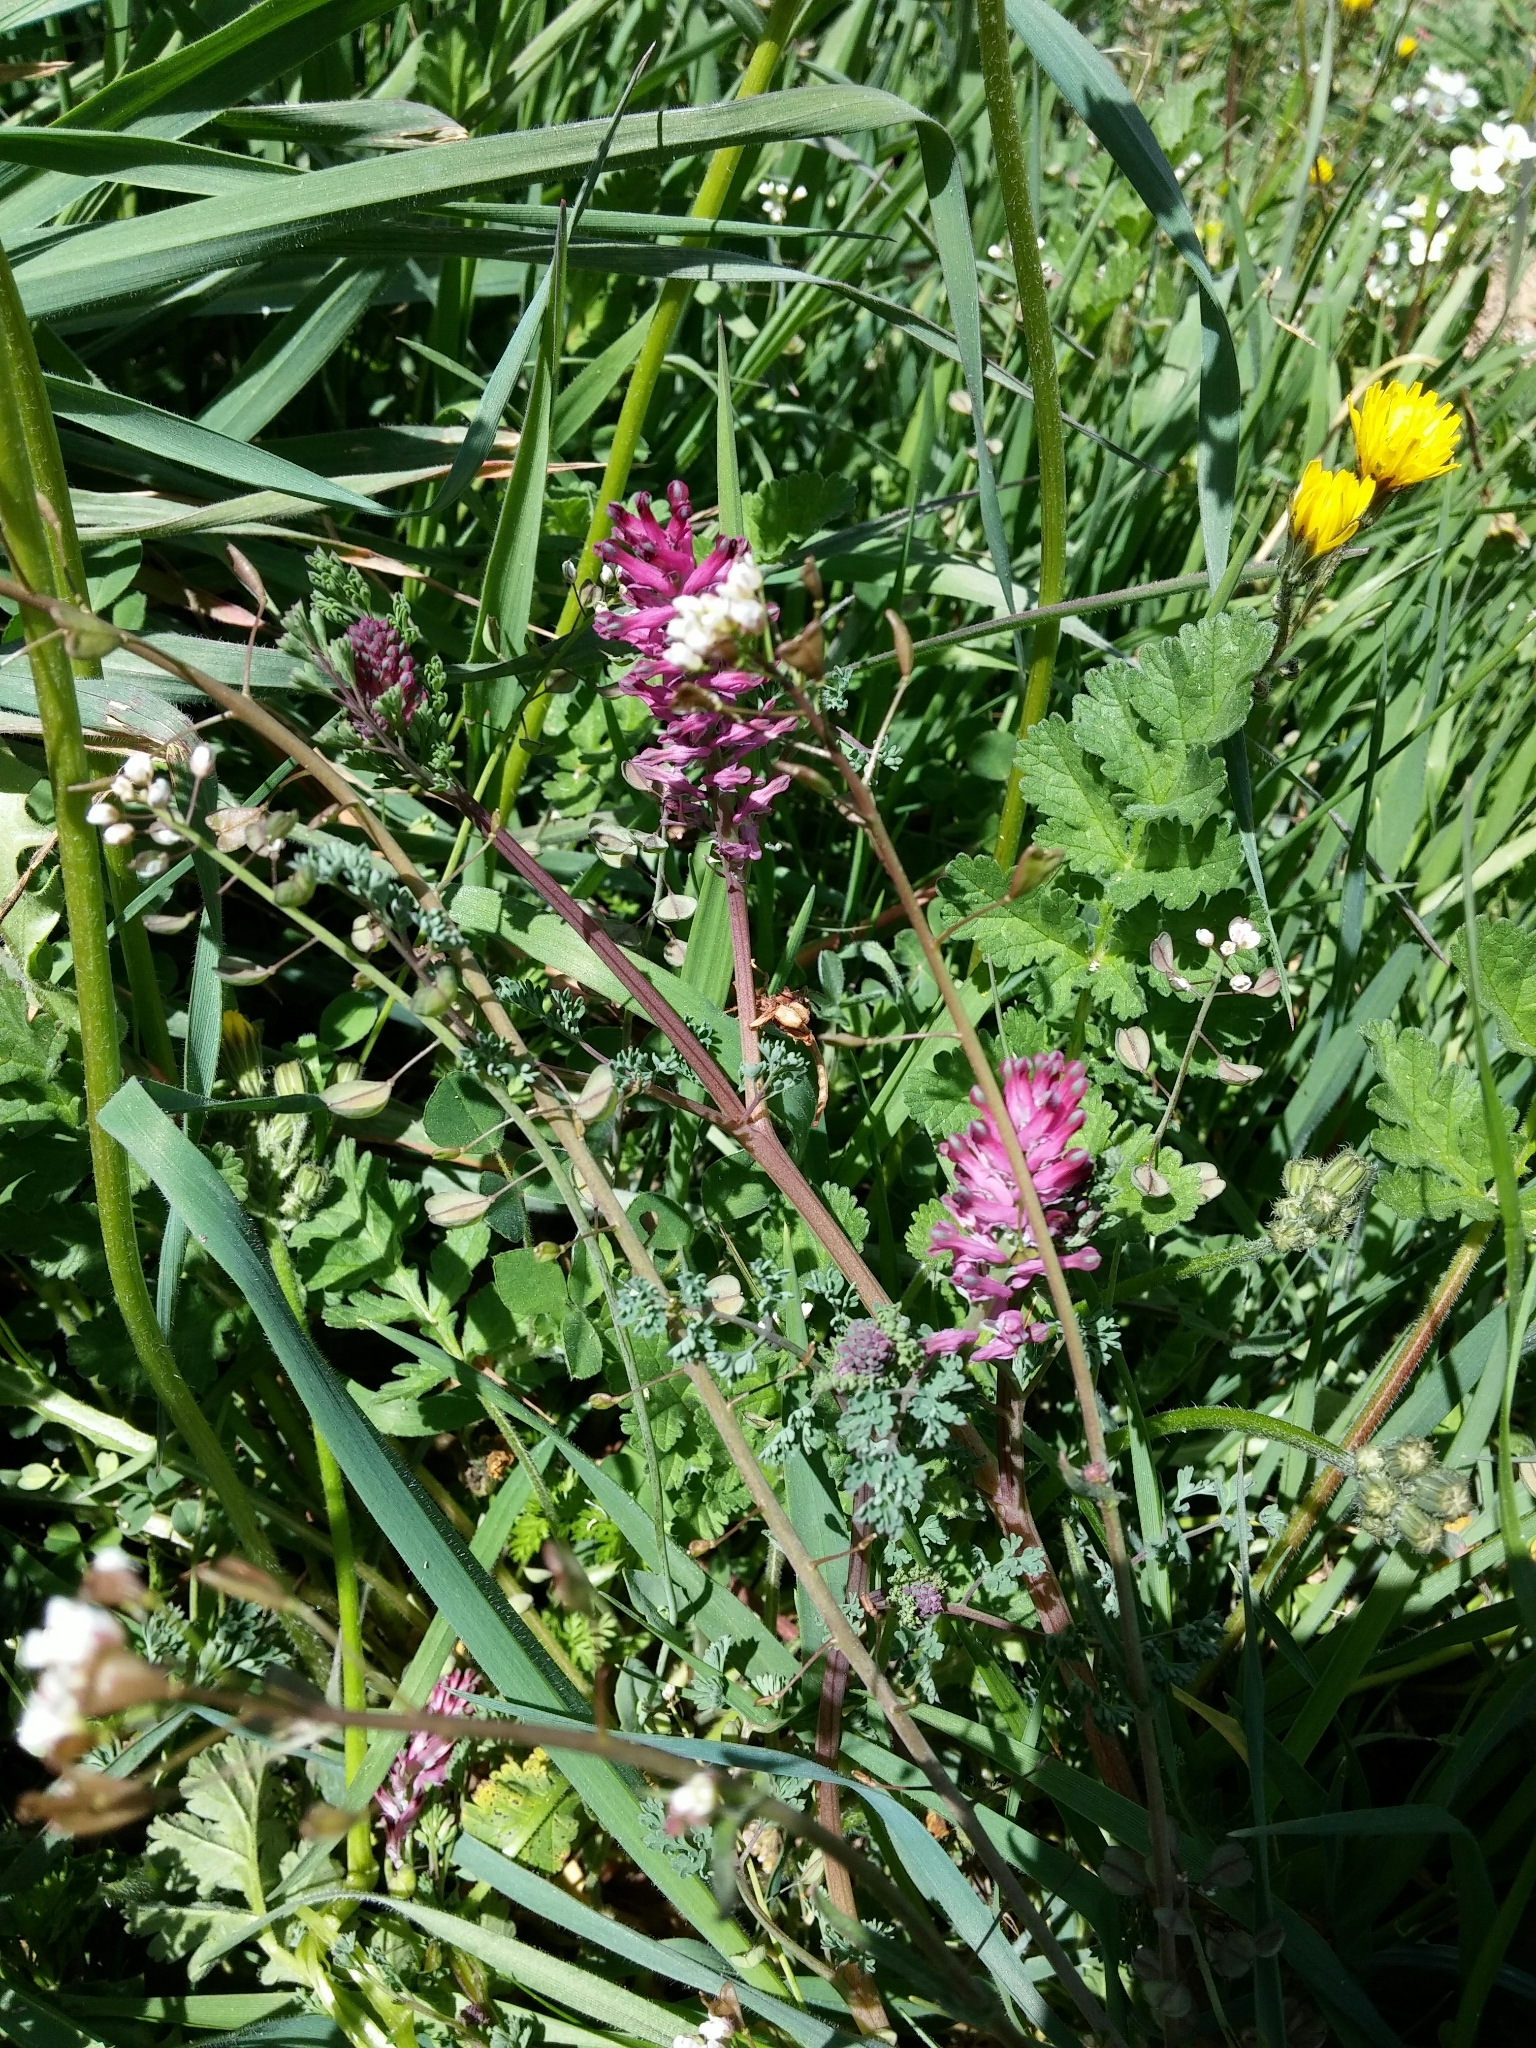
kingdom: Plantae
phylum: Tracheophyta
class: Magnoliopsida
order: Ranunculales
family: Papaveraceae
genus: Fumaria
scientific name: Fumaria officinalis
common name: Common fumitory
